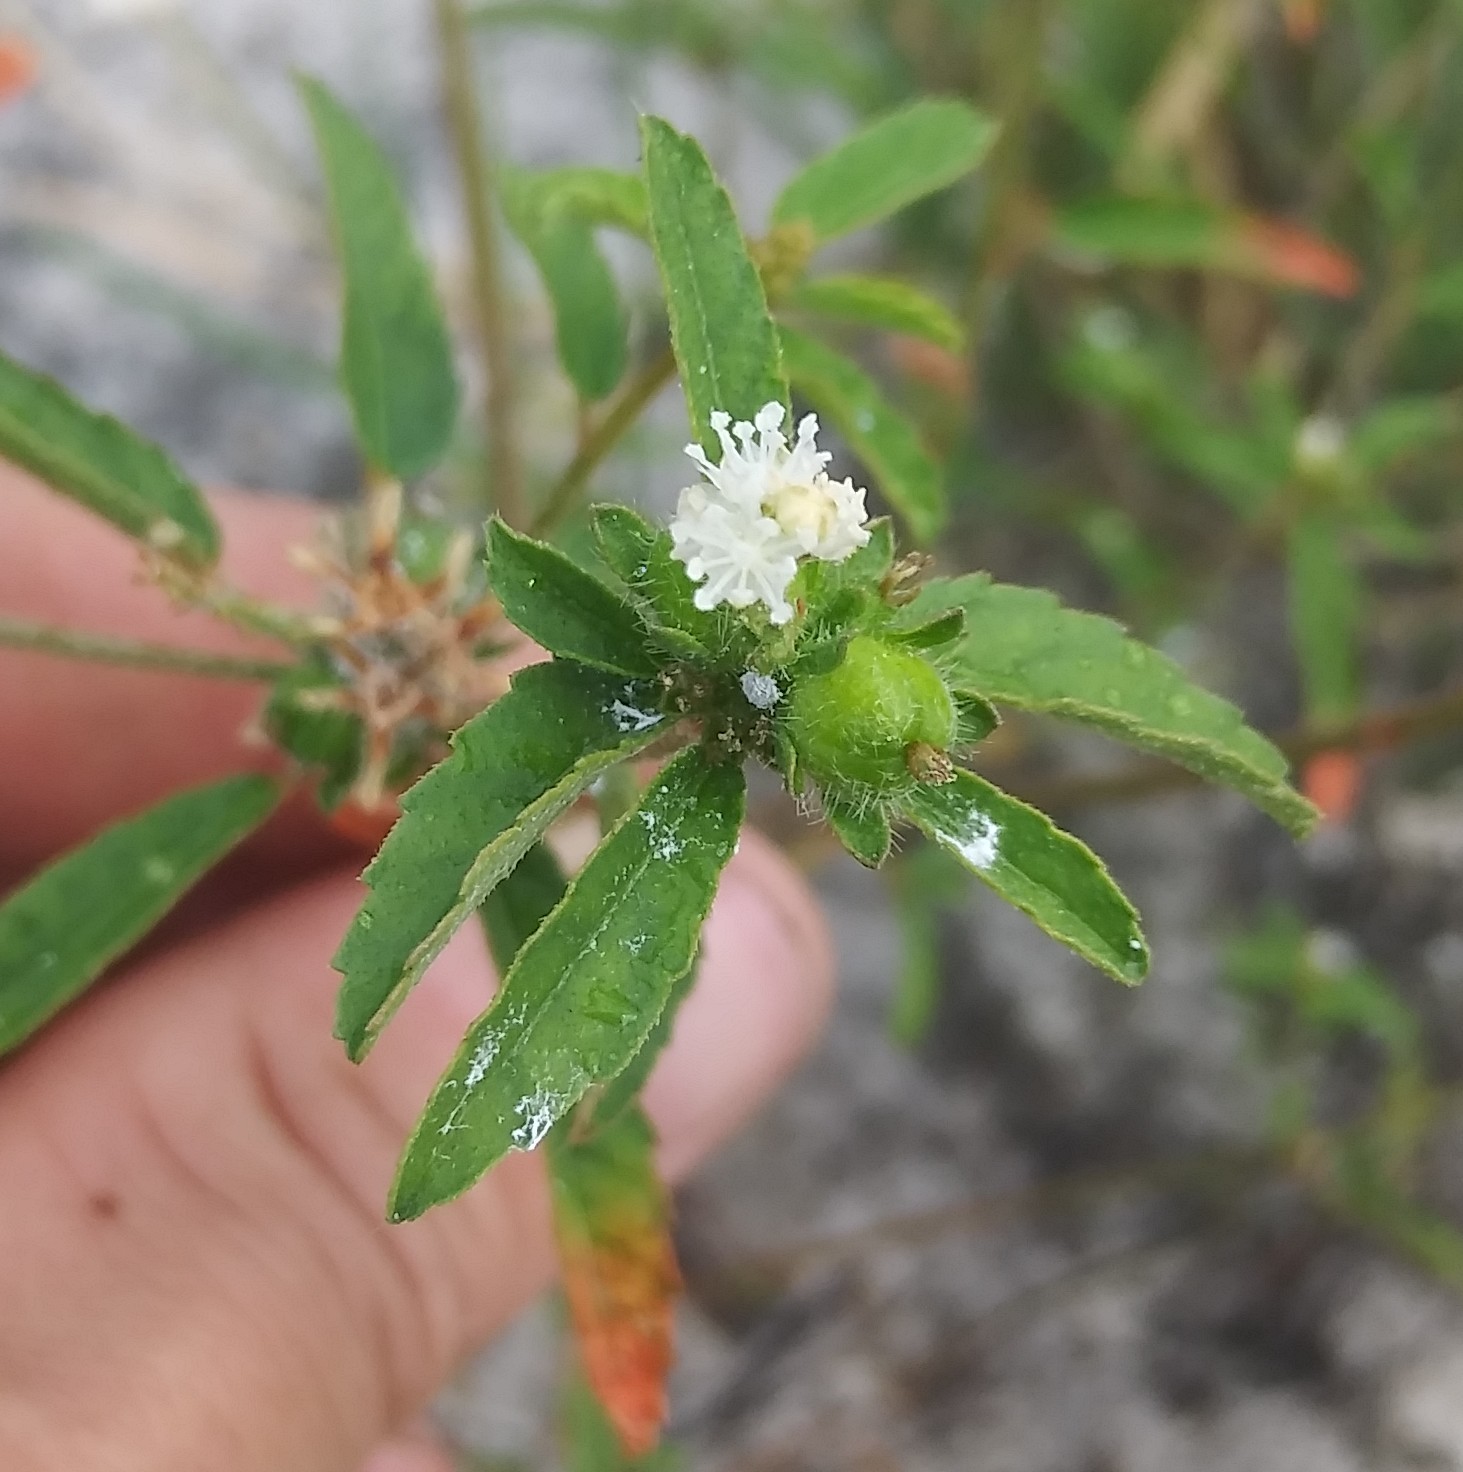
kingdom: Plantae
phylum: Tracheophyta
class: Magnoliopsida
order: Malpighiales
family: Euphorbiaceae
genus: Croton
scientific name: Croton glandulosus
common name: Tropic croton
